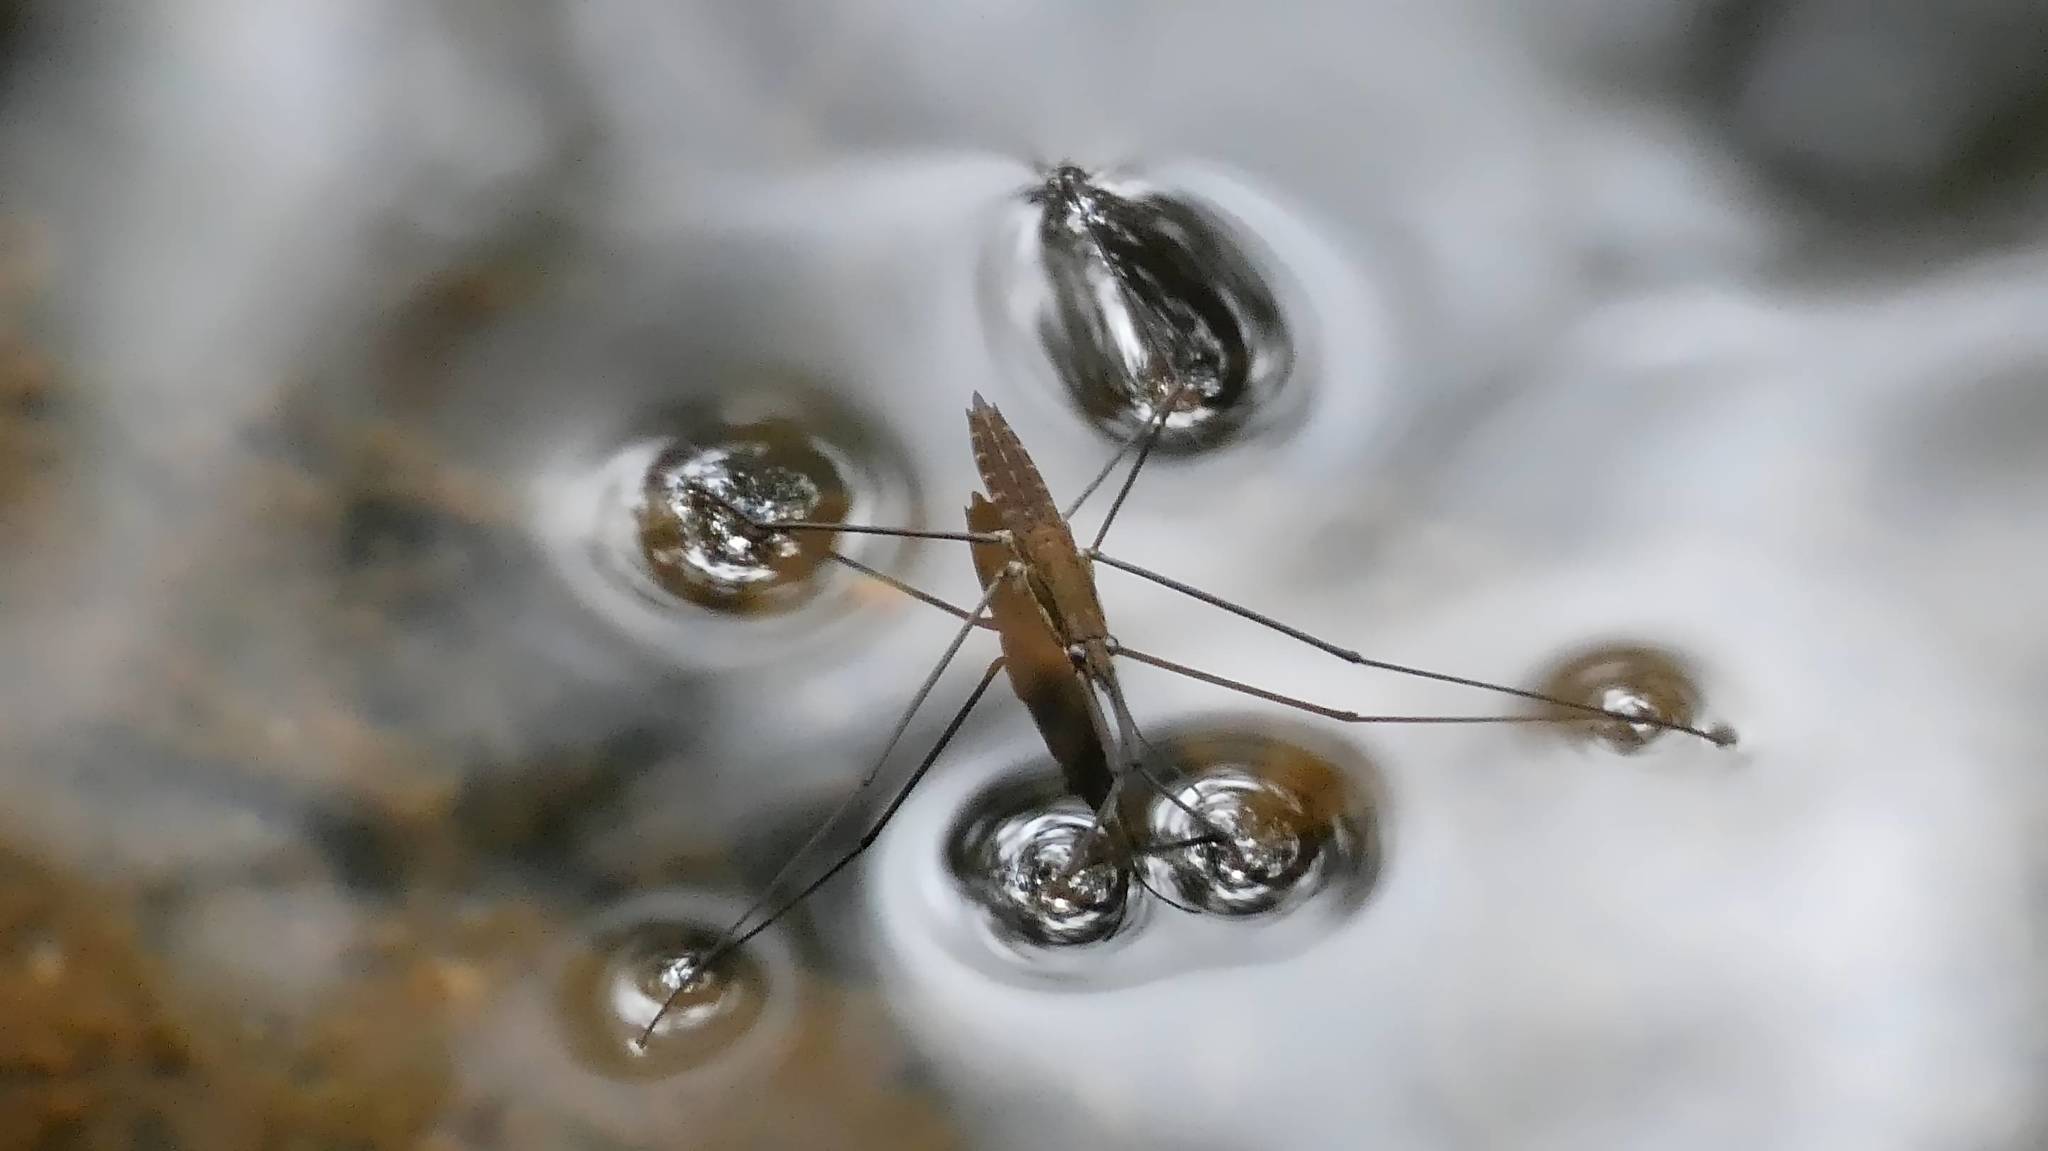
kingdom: Animalia
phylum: Arthropoda
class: Insecta
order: Hemiptera
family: Gerridae
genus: Aquarius
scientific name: Aquarius najas
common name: River skater
